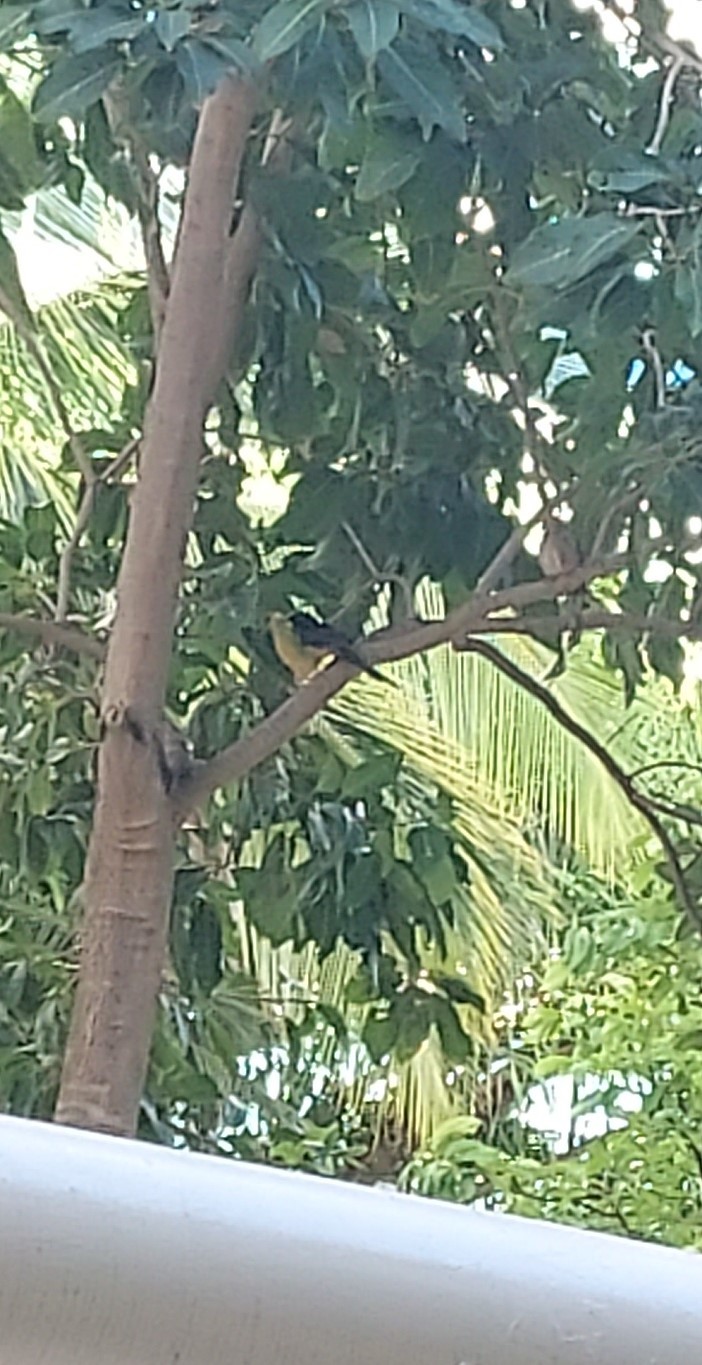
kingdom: Animalia
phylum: Chordata
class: Aves
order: Passeriformes
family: Muscicapidae
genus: Copsychus
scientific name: Copsychus malabaricus
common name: White-rumped shama
